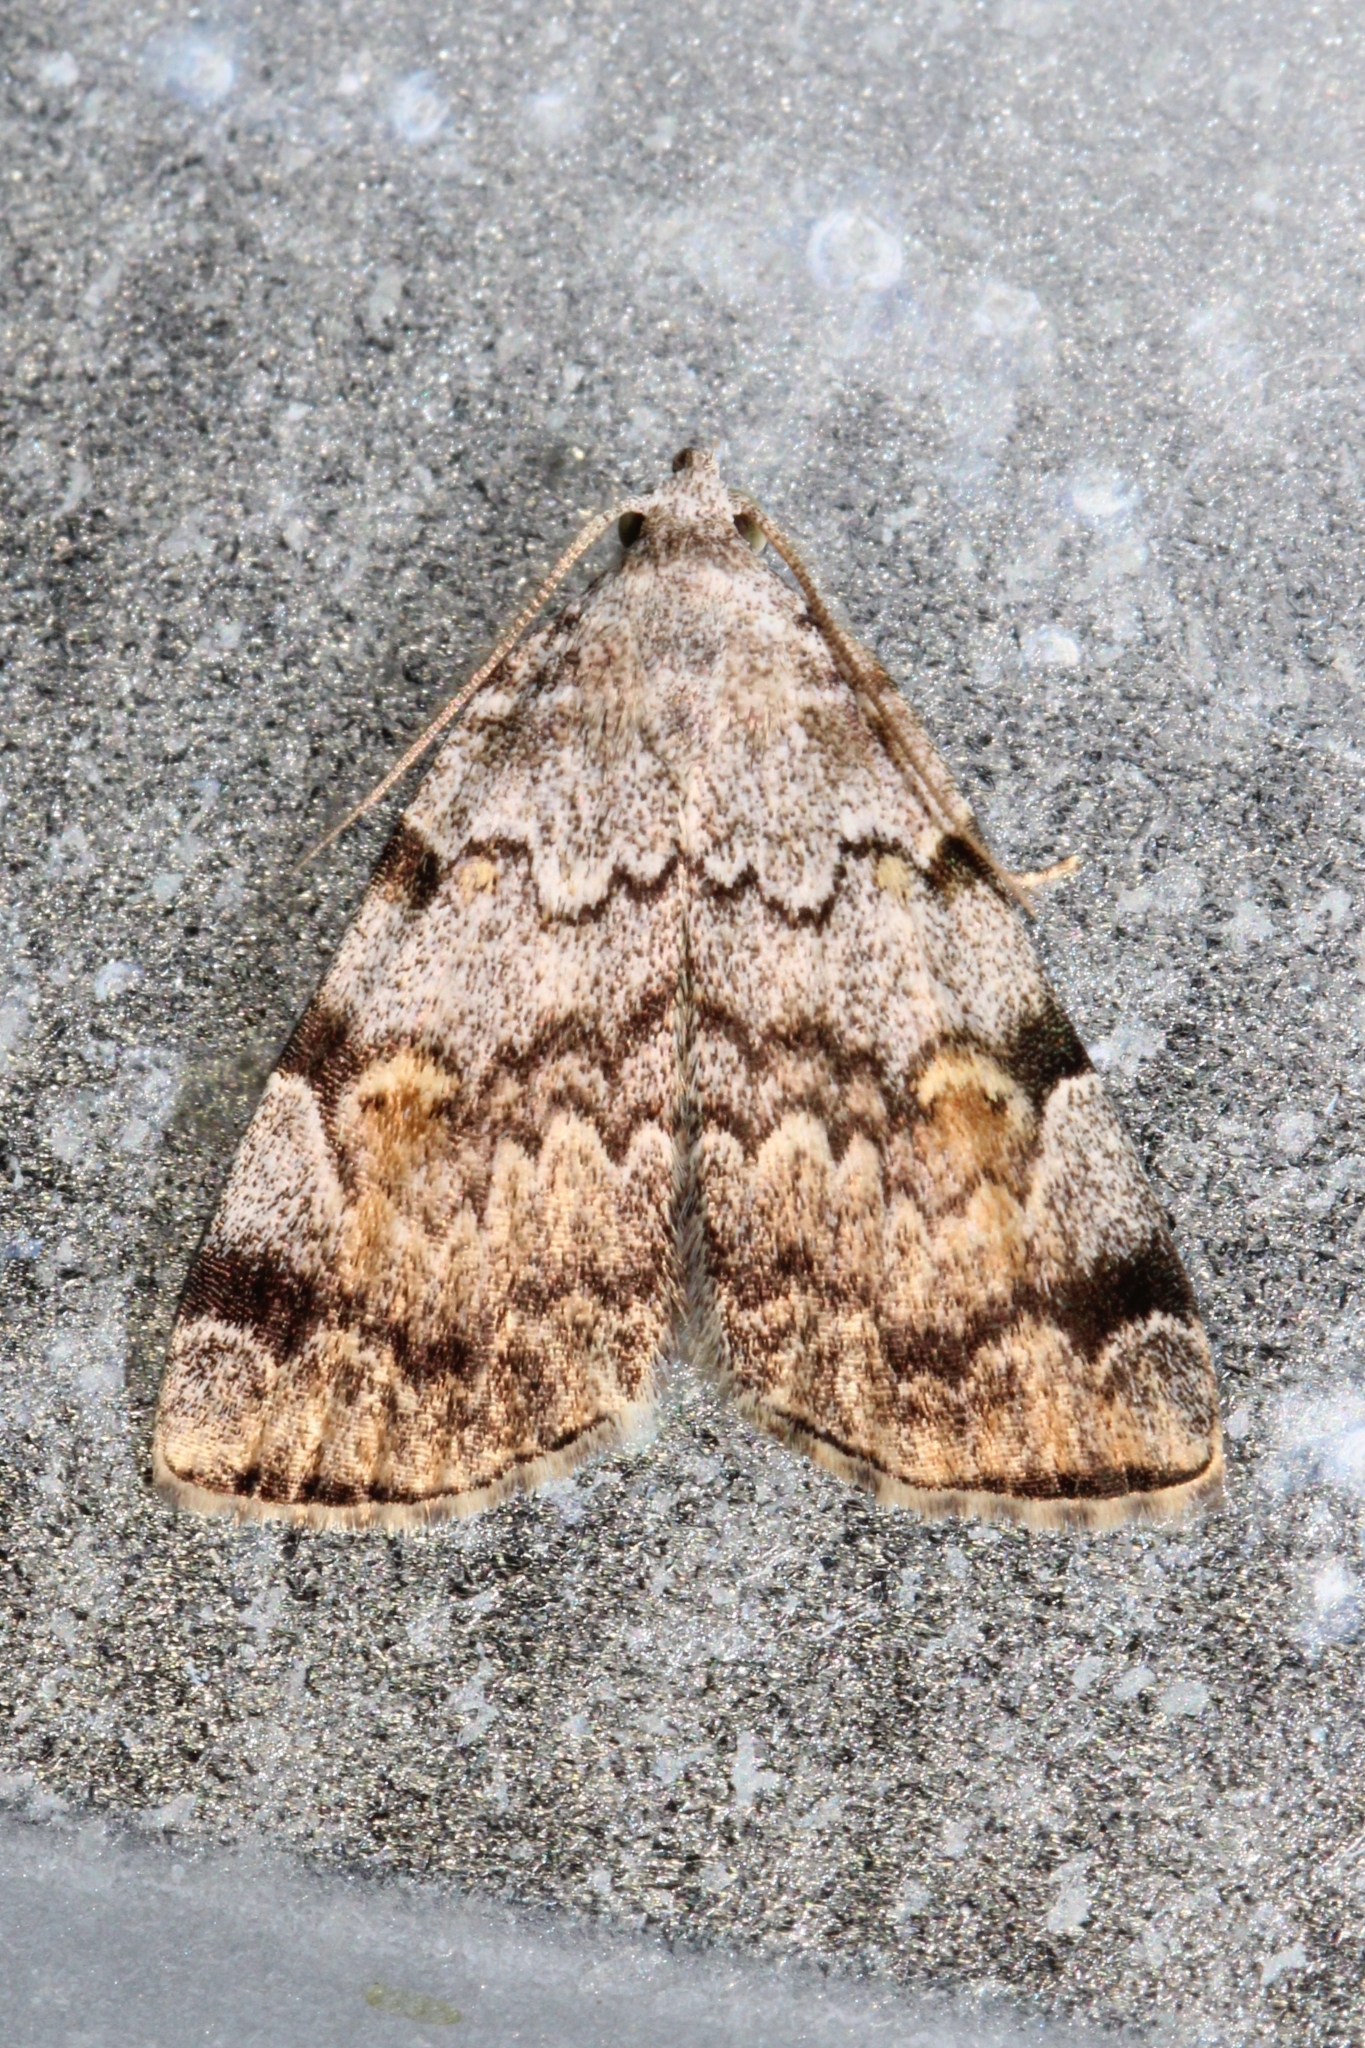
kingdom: Animalia
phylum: Arthropoda
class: Insecta
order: Lepidoptera
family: Erebidae
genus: Idia
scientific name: Idia americalis
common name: American idia moth
